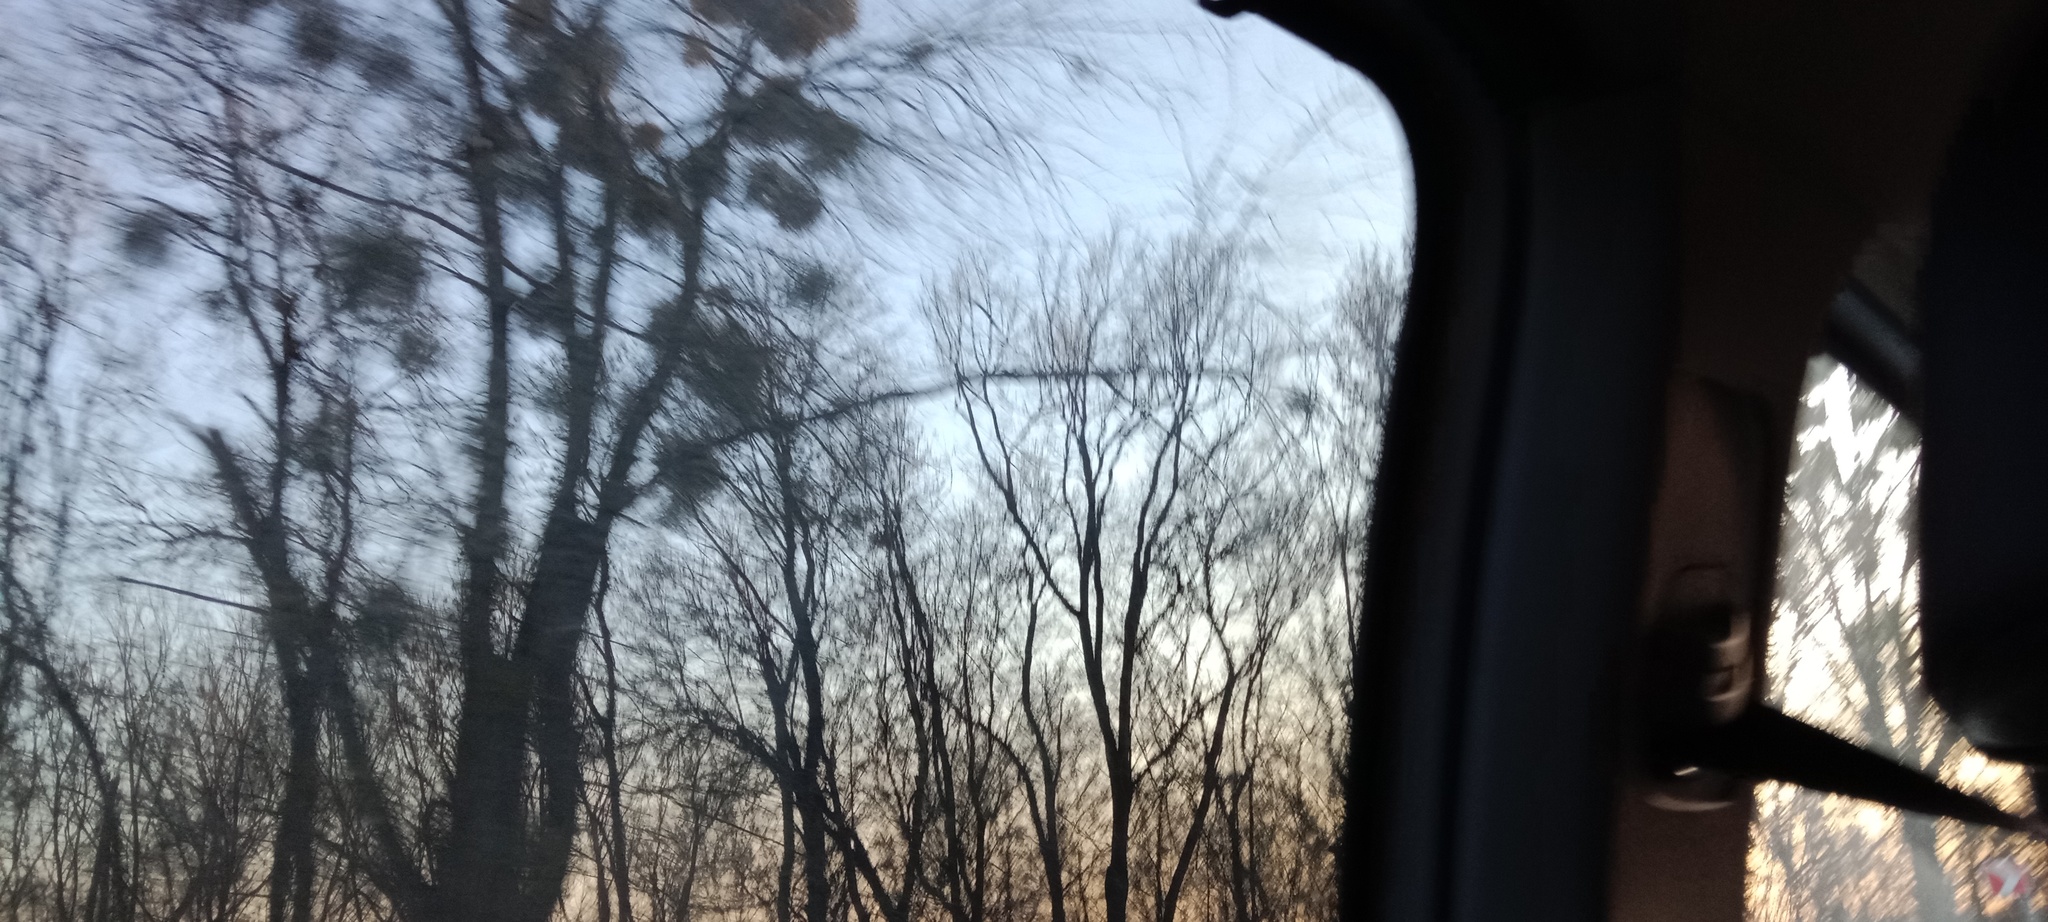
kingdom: Plantae
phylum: Tracheophyta
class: Magnoliopsida
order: Santalales
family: Viscaceae
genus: Viscum
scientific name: Viscum album
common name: Mistletoe
